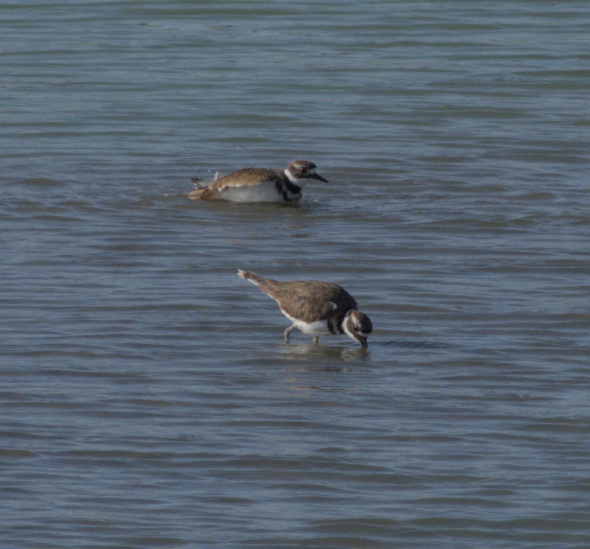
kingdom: Animalia
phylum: Chordata
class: Aves
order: Charadriiformes
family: Charadriidae
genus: Charadrius
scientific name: Charadrius vociferus
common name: Killdeer
